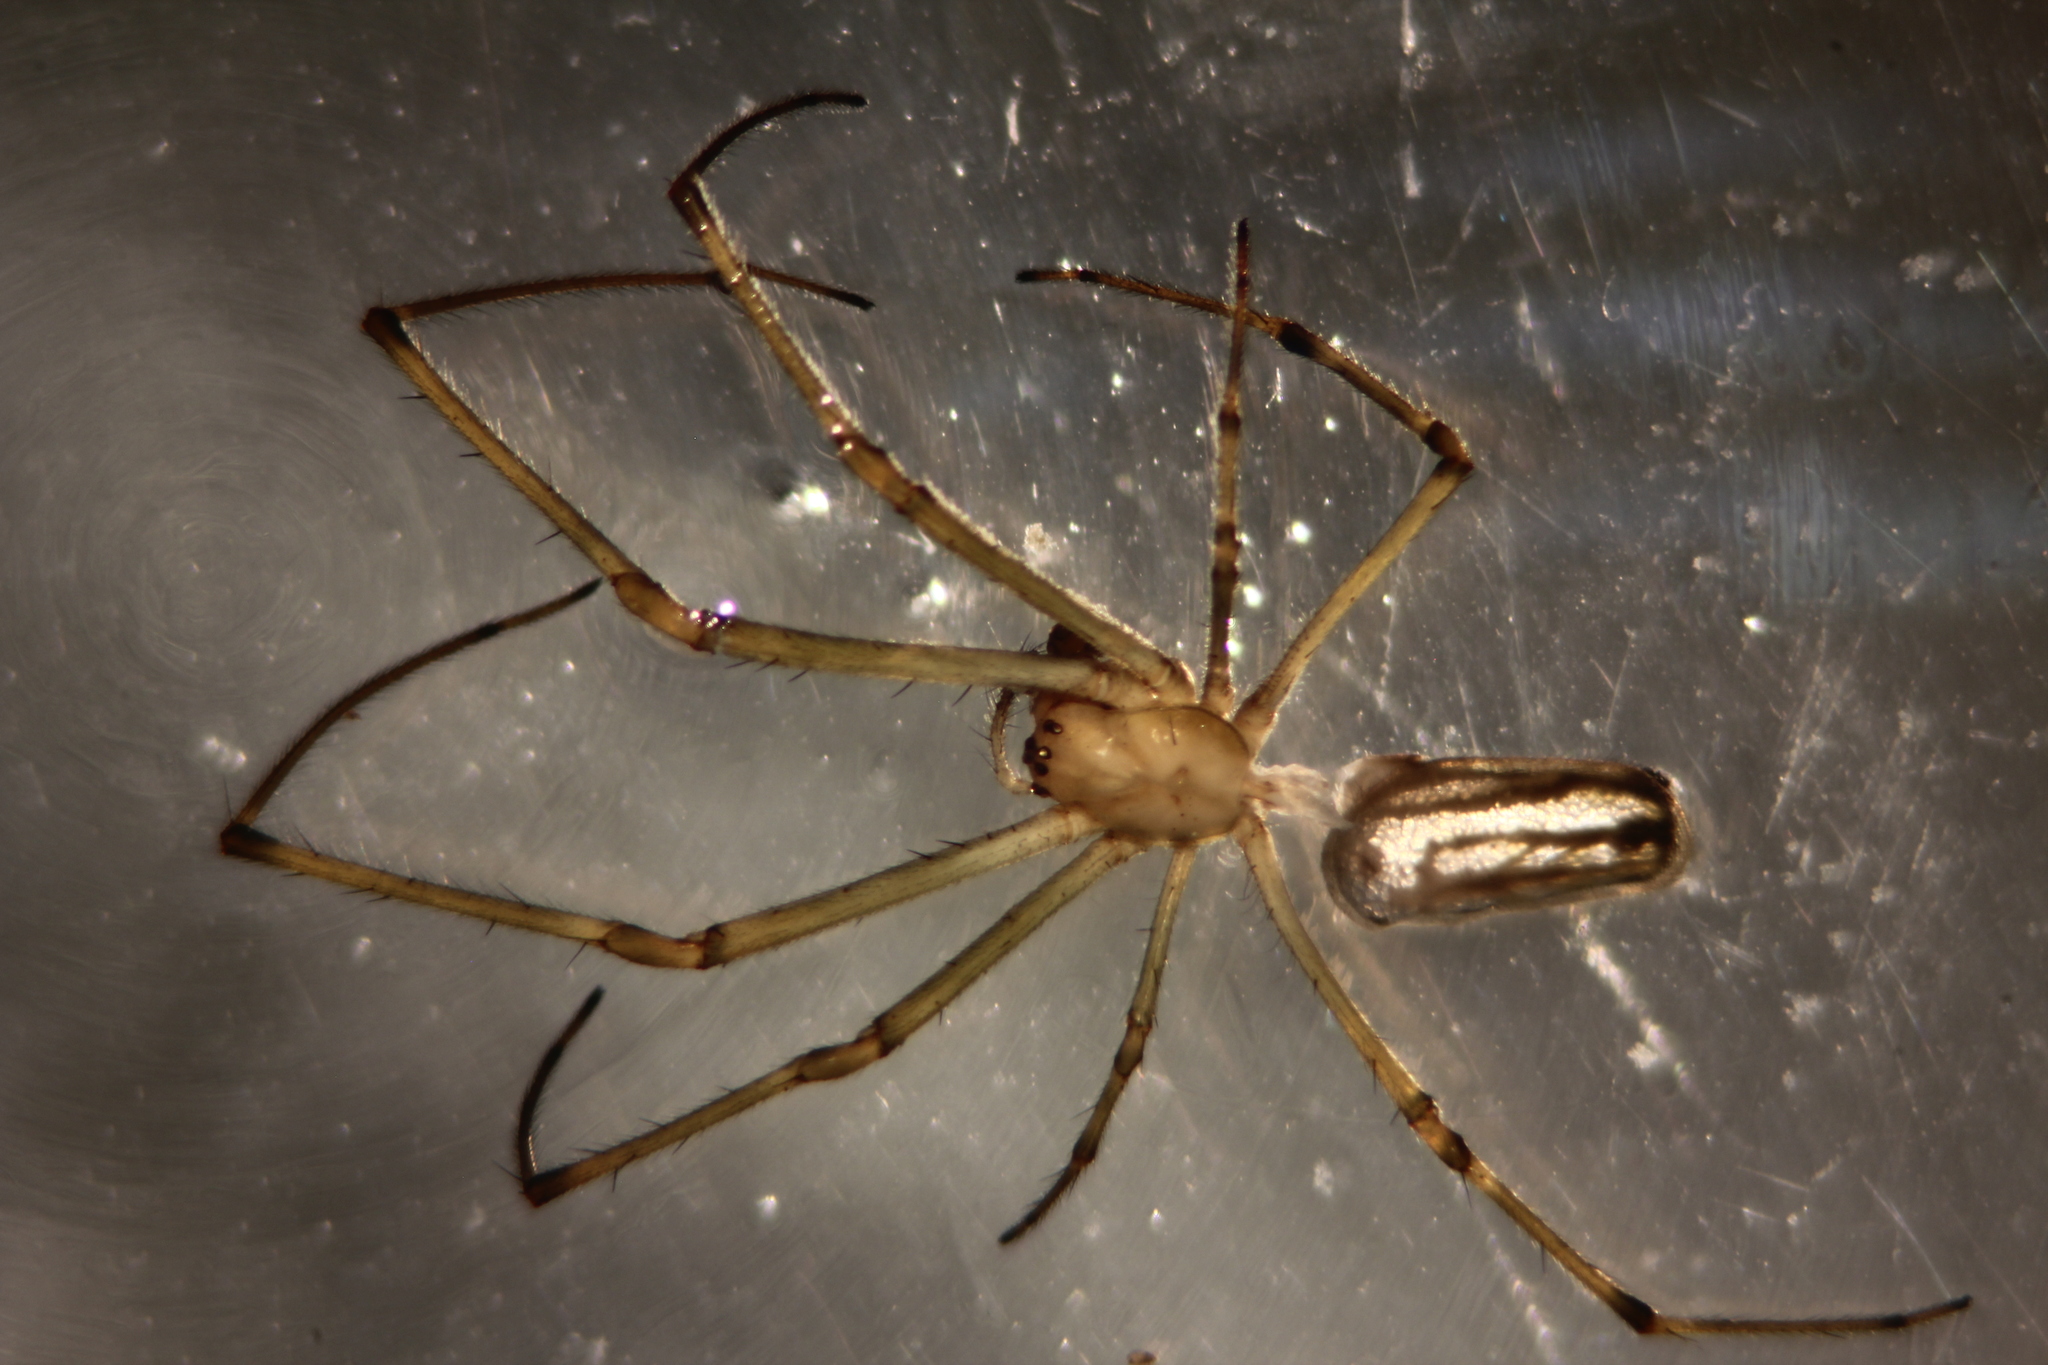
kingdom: Animalia
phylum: Arthropoda
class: Arachnida
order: Araneae
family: Tetragnathidae
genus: Leucauge
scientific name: Leucauge blanda
